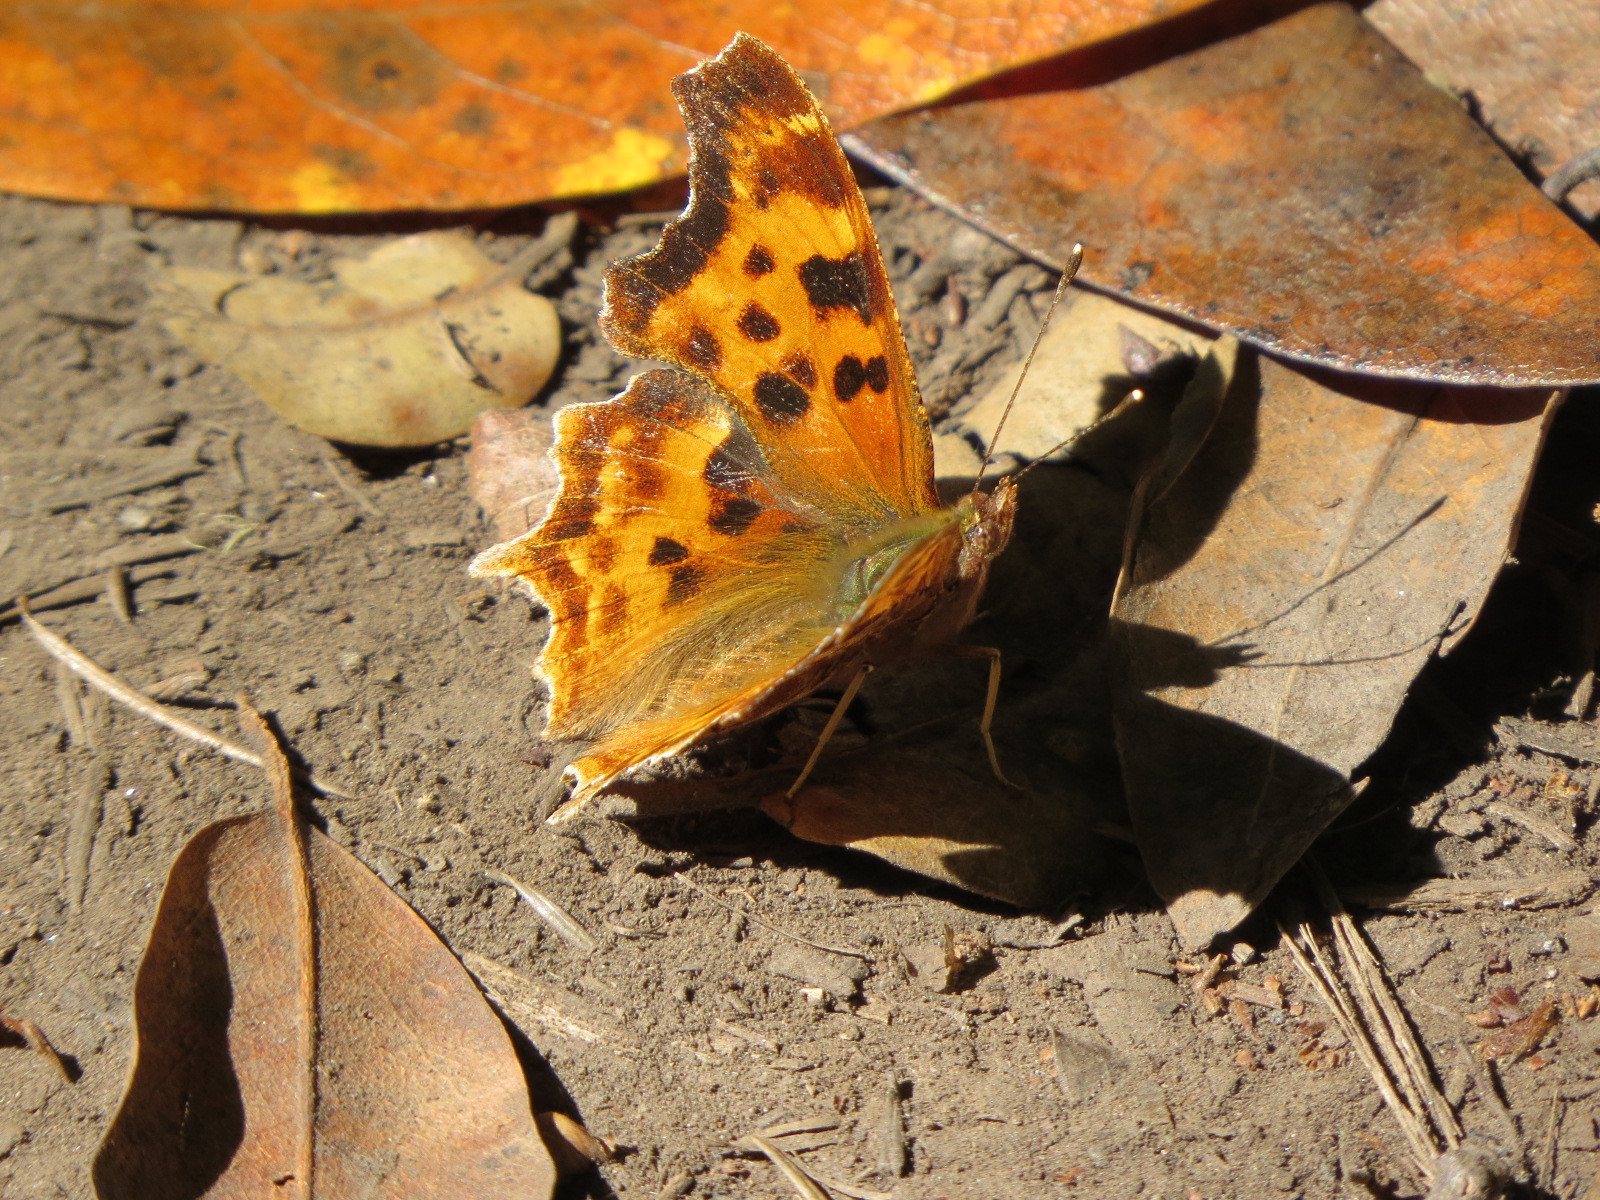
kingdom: Animalia
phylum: Arthropoda
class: Insecta
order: Lepidoptera
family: Nymphalidae
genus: Polygonia
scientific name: Polygonia satyrus
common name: Satyr angle wing
